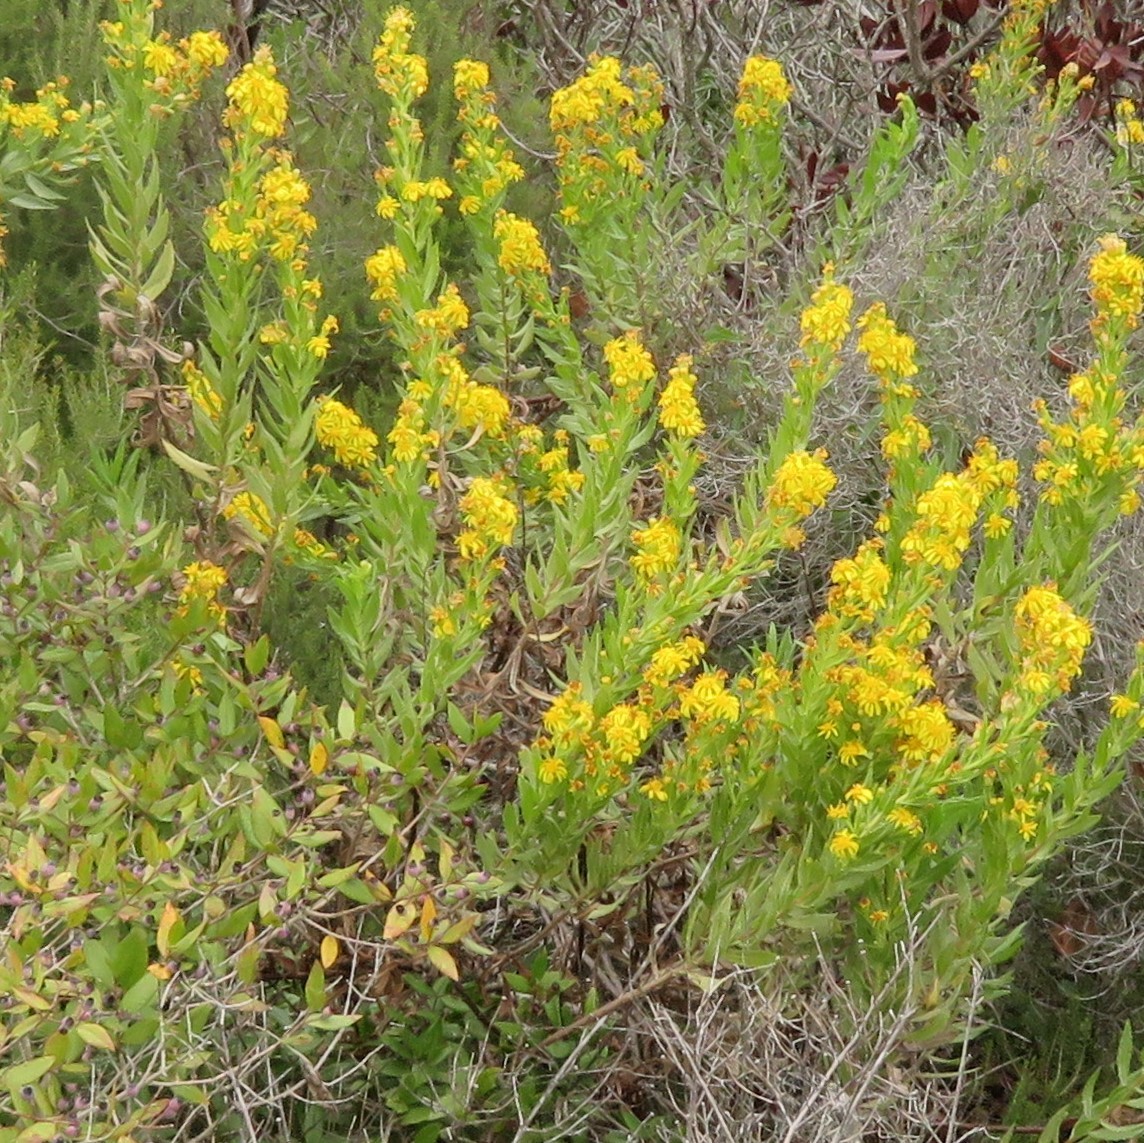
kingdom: Plantae
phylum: Tracheophyta
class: Magnoliopsida
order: Asterales
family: Asteraceae
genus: Dittrichia
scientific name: Dittrichia viscosa
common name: Woody fleabane
